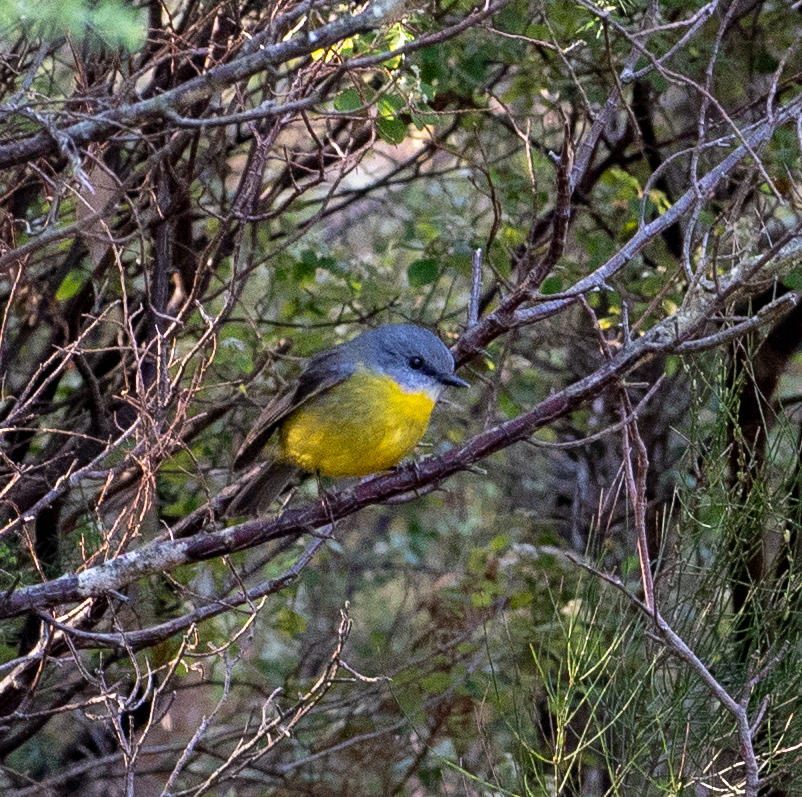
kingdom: Animalia
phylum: Chordata
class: Aves
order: Passeriformes
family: Petroicidae
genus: Eopsaltria
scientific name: Eopsaltria australis
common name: Eastern yellow robin
